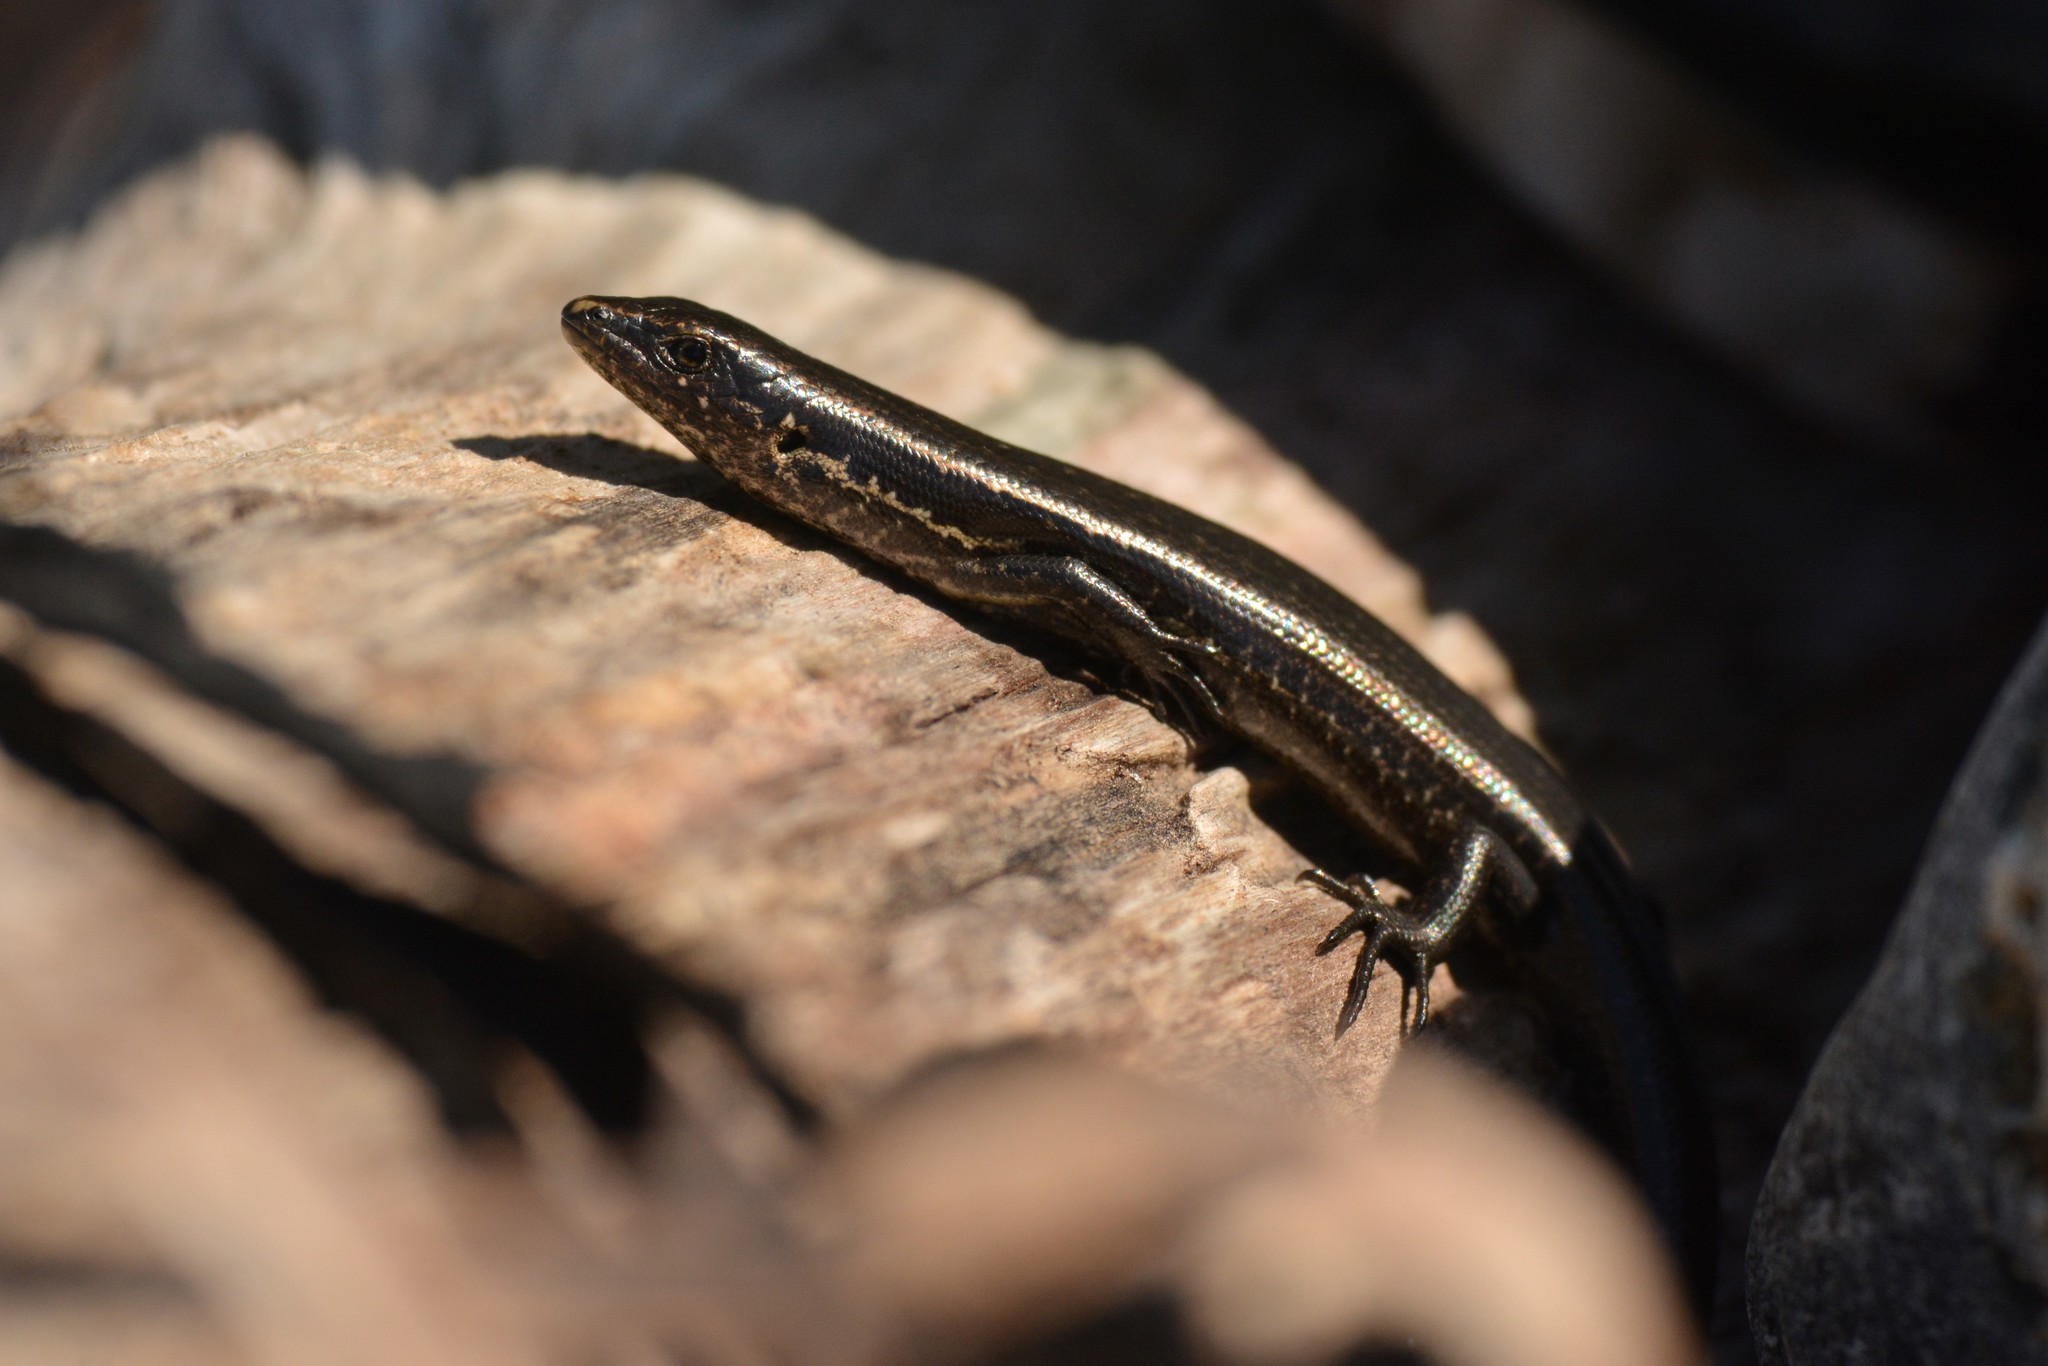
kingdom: Animalia
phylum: Chordata
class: Squamata
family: Scincidae
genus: Oligosoma
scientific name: Oligosoma polychroma
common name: Common new zealand skink
